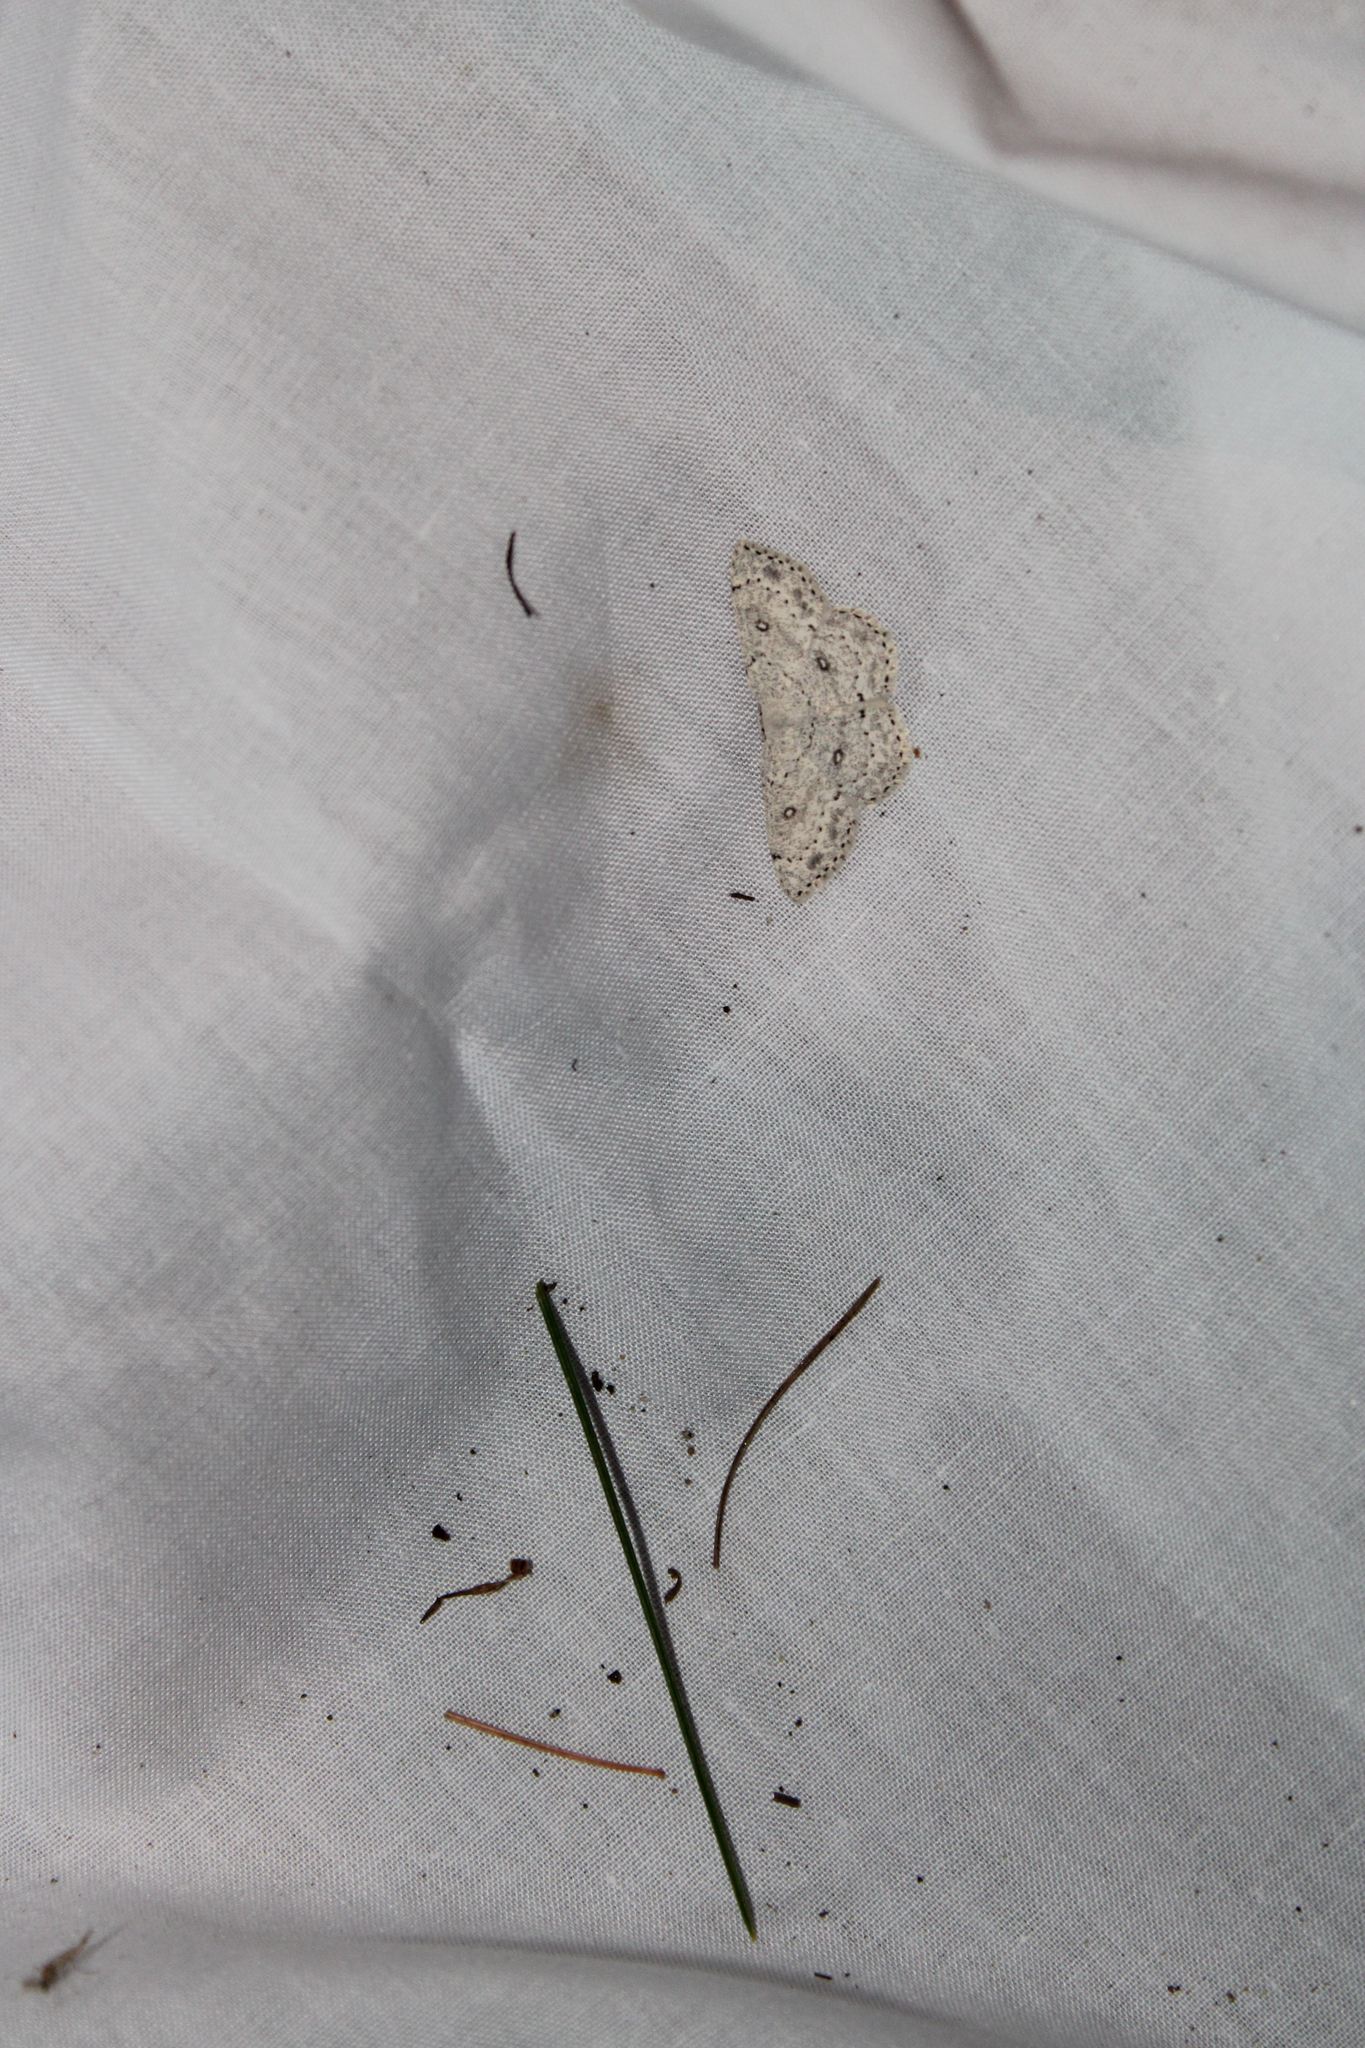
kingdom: Animalia
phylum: Arthropoda
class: Insecta
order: Lepidoptera
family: Geometridae
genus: Cyclophora
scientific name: Cyclophora pendulinaria
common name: Sweet fern geometer
